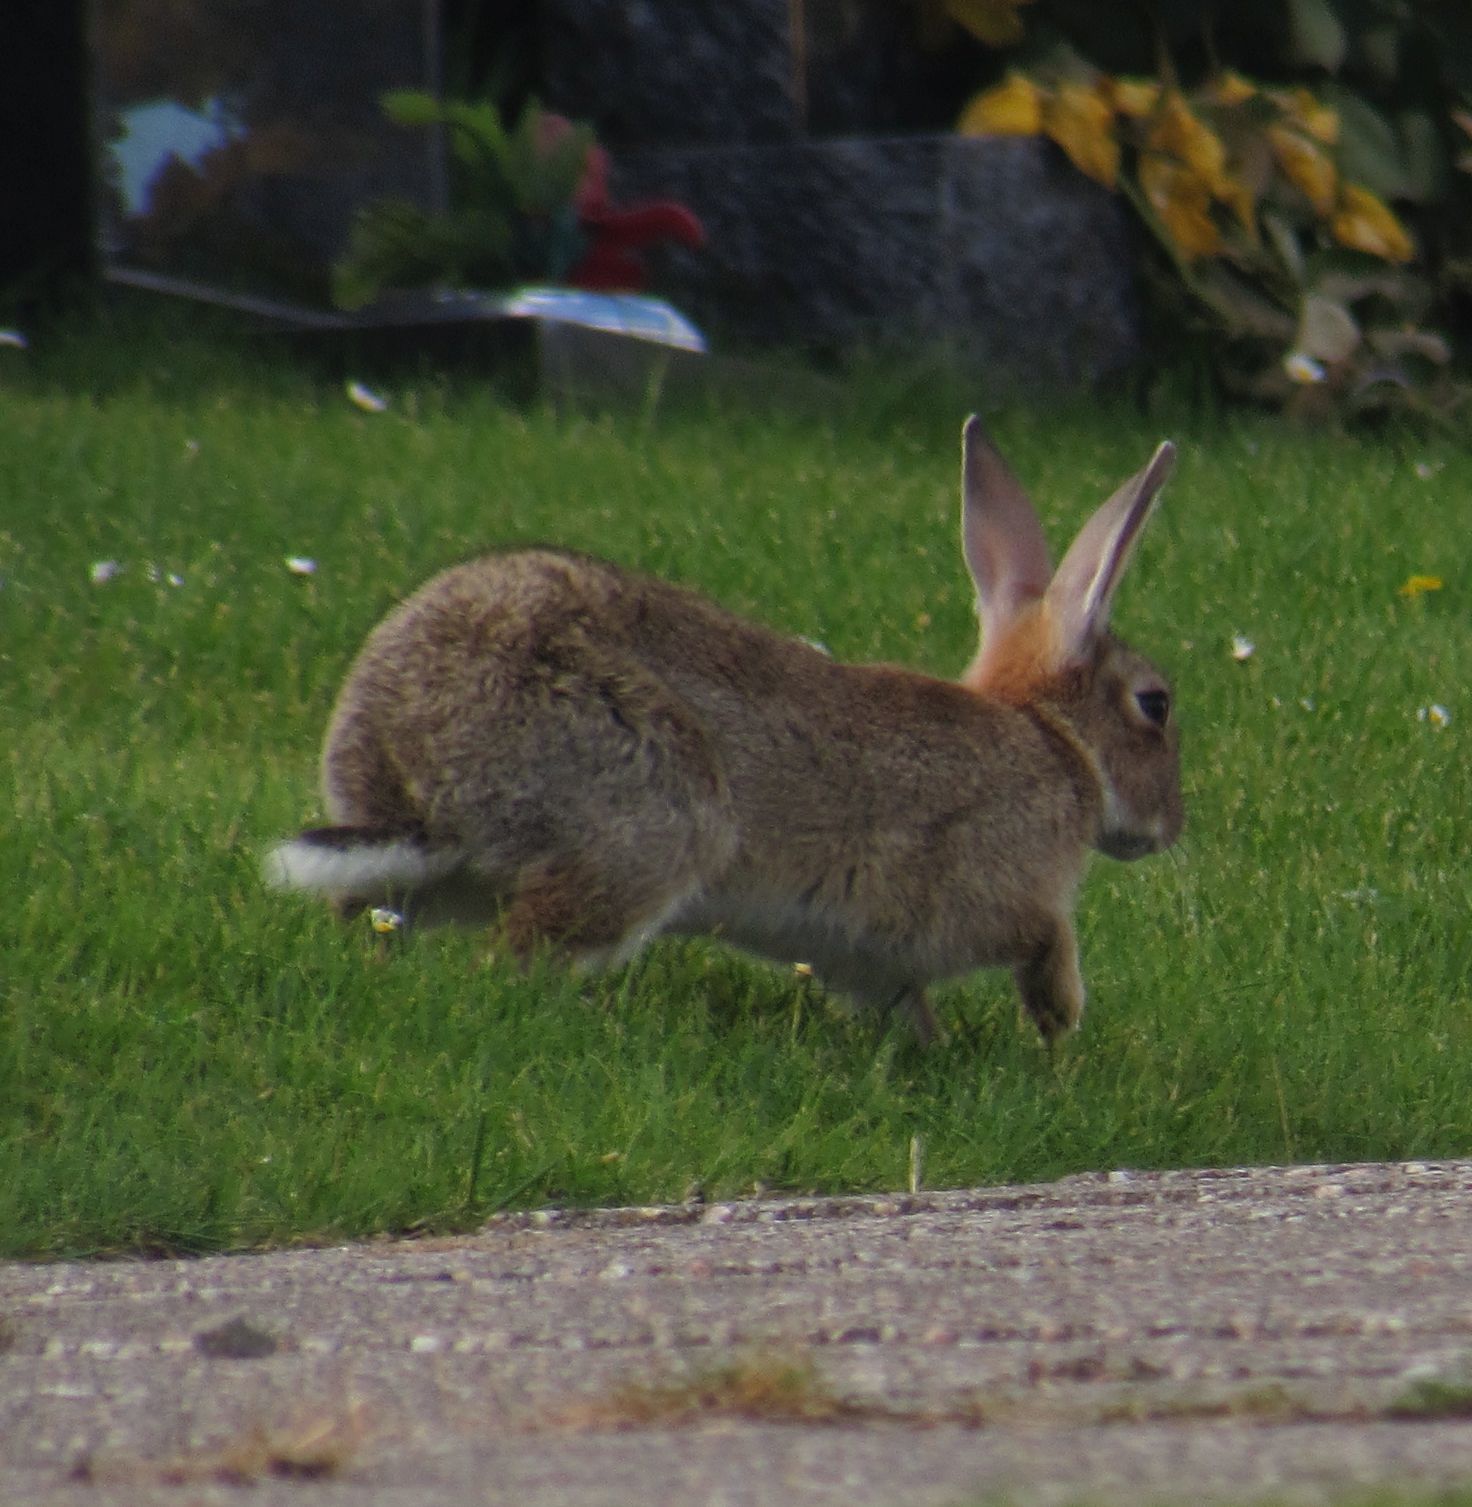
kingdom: Animalia
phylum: Chordata
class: Mammalia
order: Lagomorpha
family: Leporidae
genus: Oryctolagus
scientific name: Oryctolagus cuniculus
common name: European rabbit
